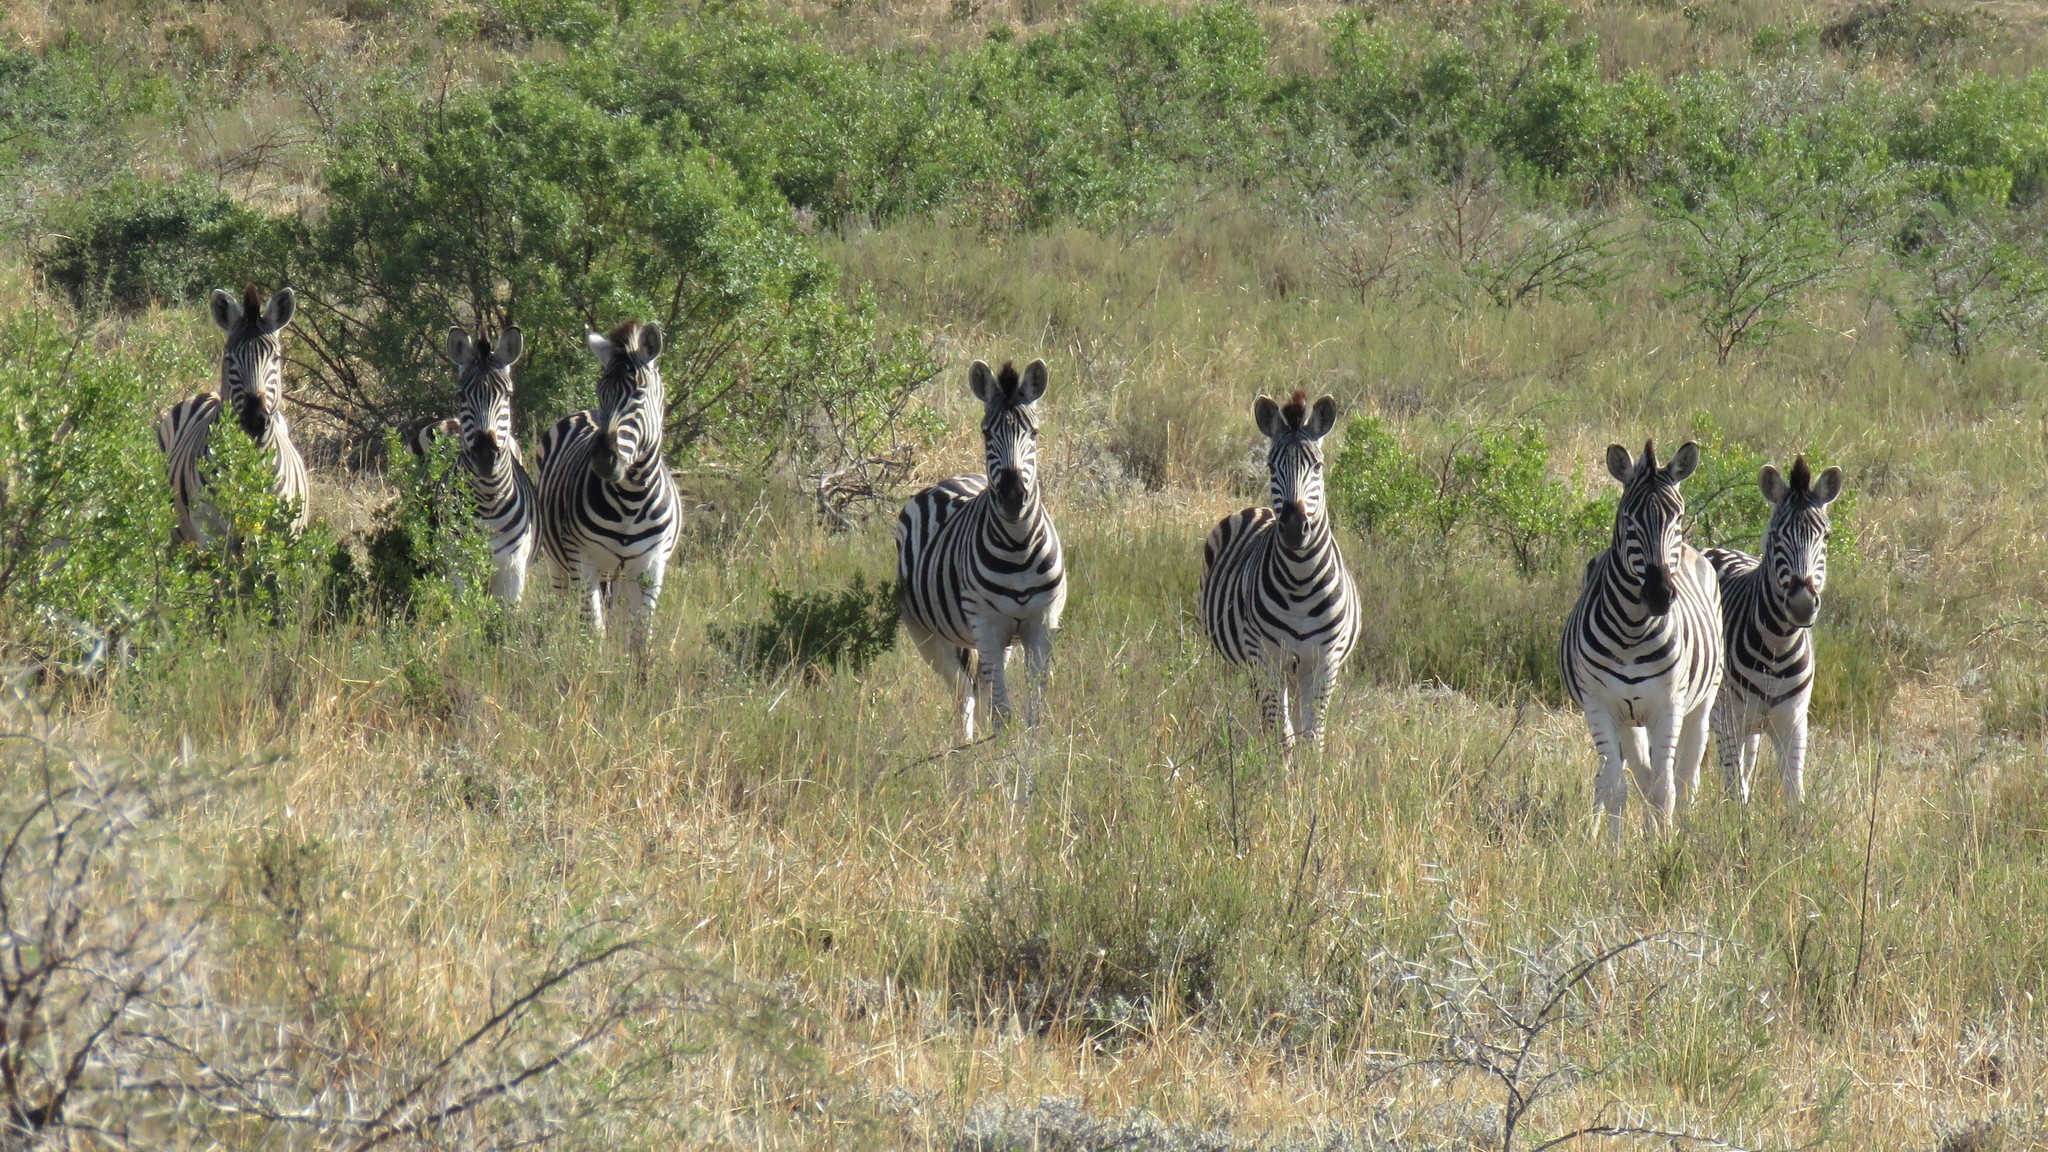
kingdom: Animalia
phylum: Chordata
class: Mammalia
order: Perissodactyla
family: Equidae
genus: Equus
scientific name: Equus quagga
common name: Plains zebra
